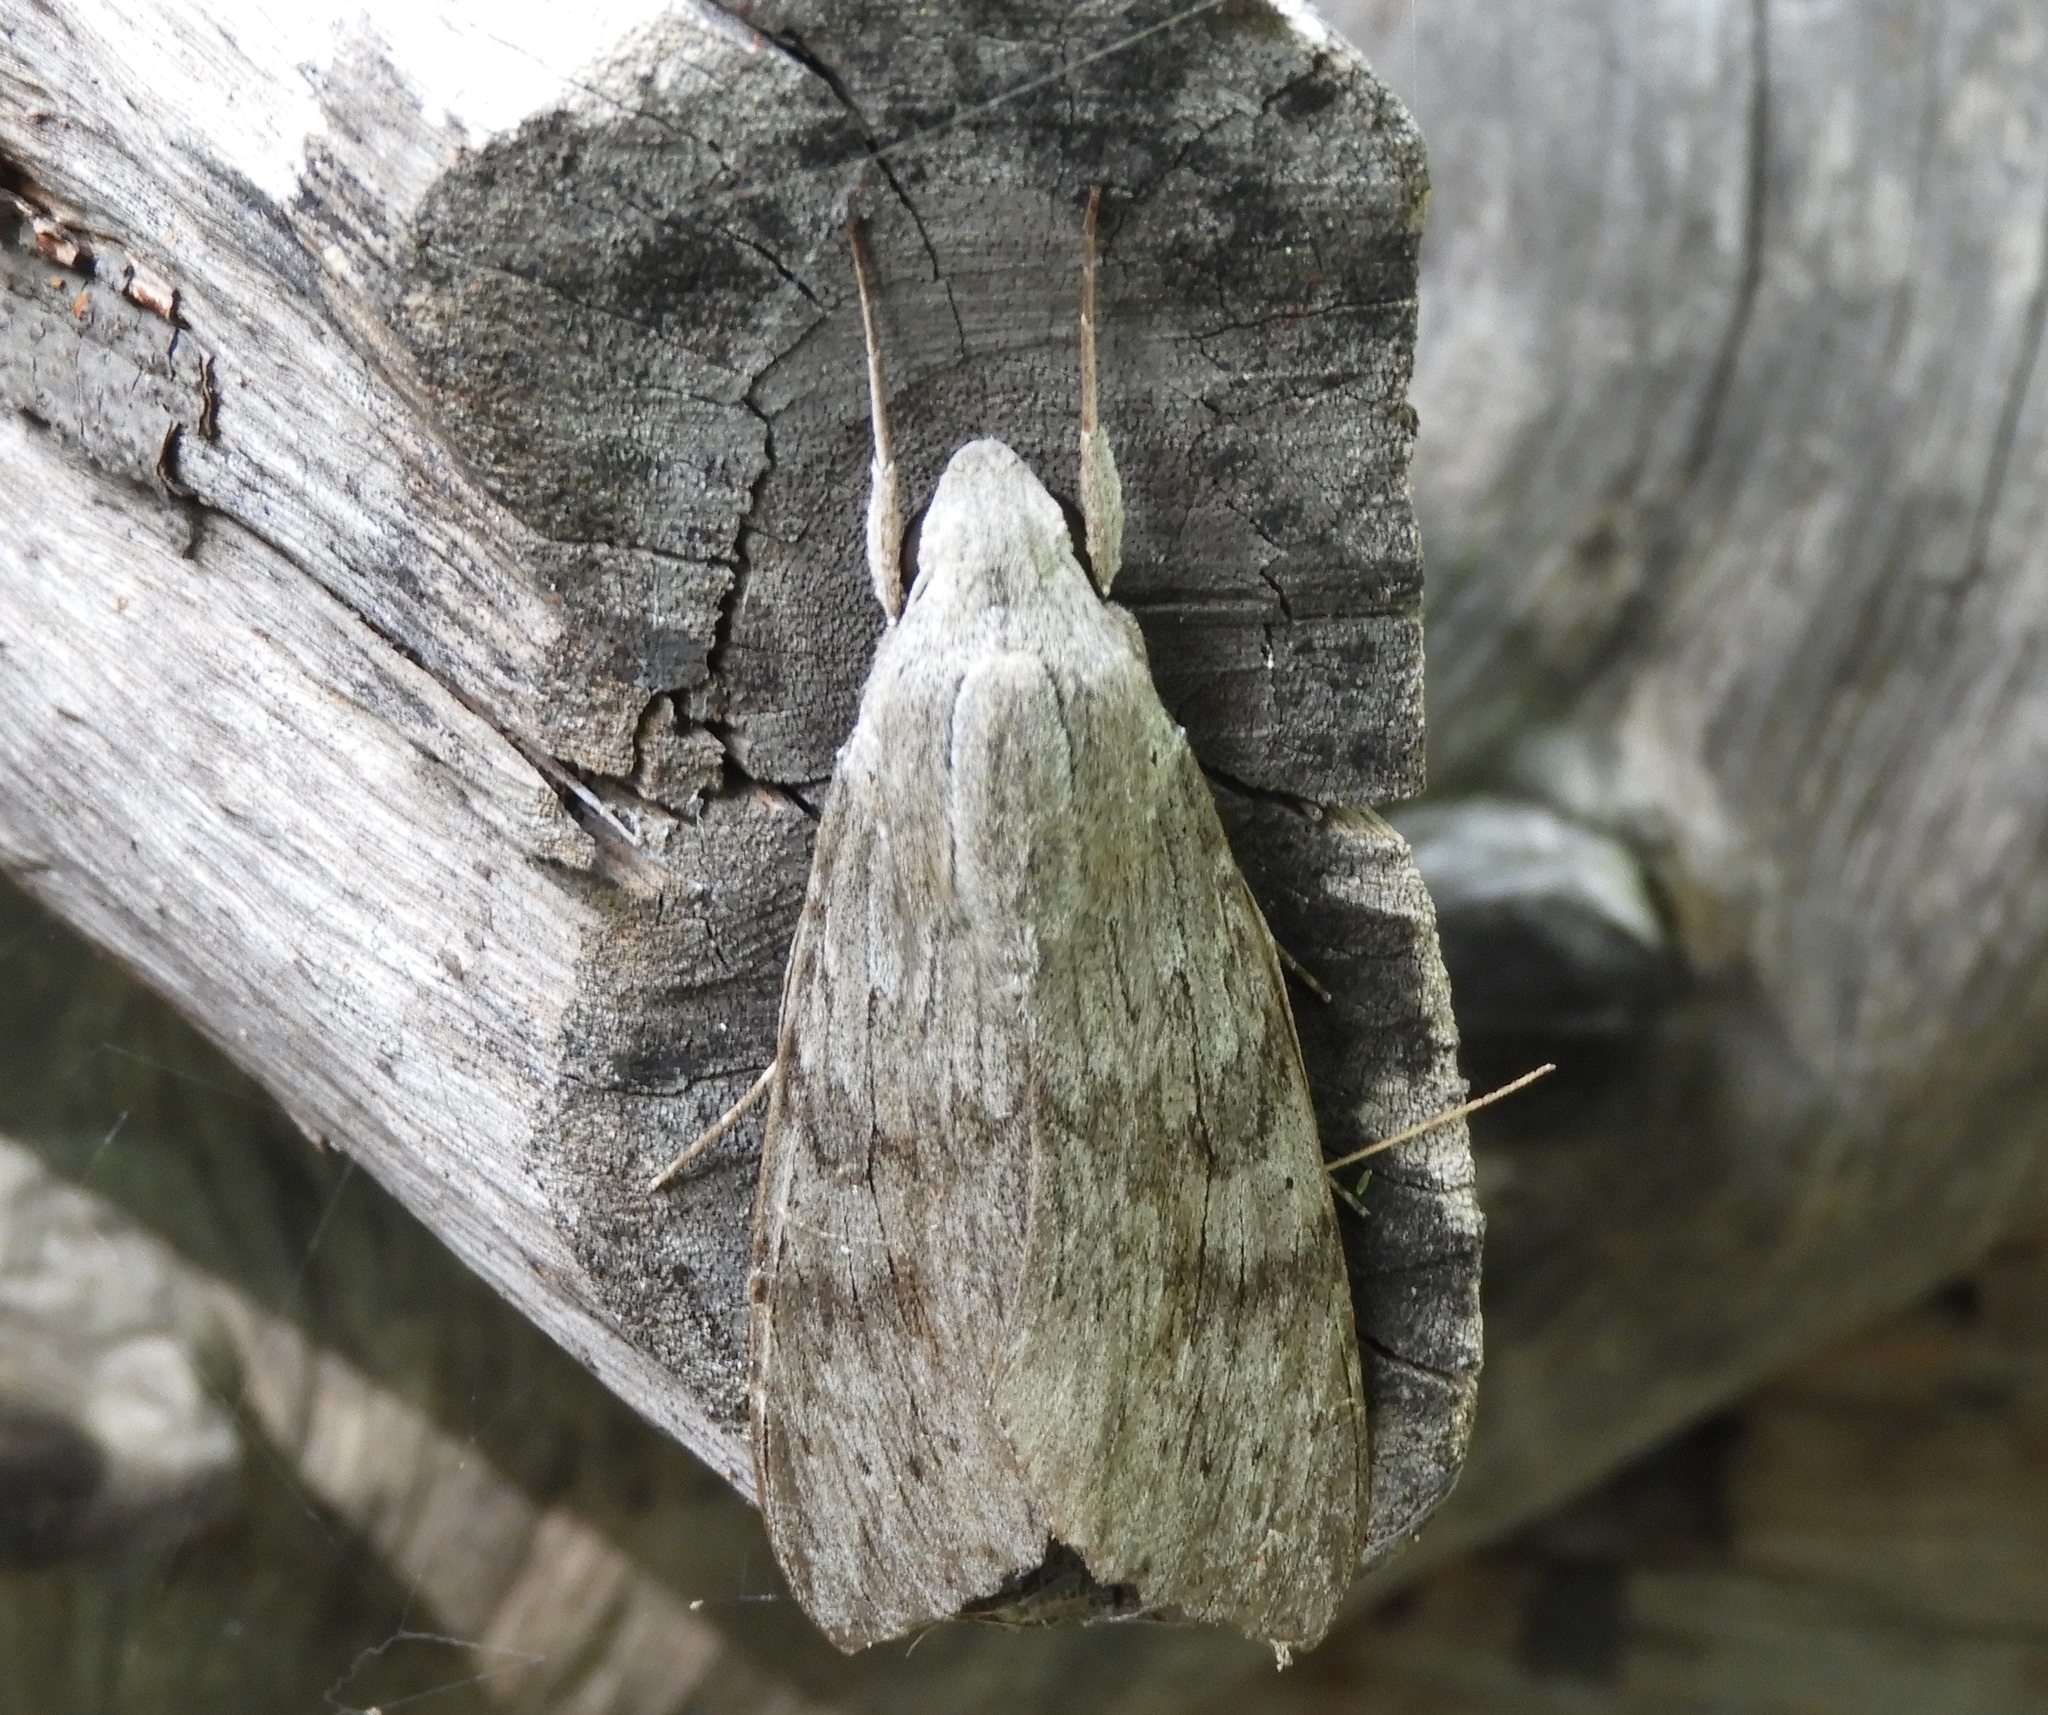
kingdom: Animalia
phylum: Arthropoda
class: Insecta
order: Lepidoptera
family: Sphingidae
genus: Erinnyis
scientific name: Erinnyis ello
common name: Ello sphinx
